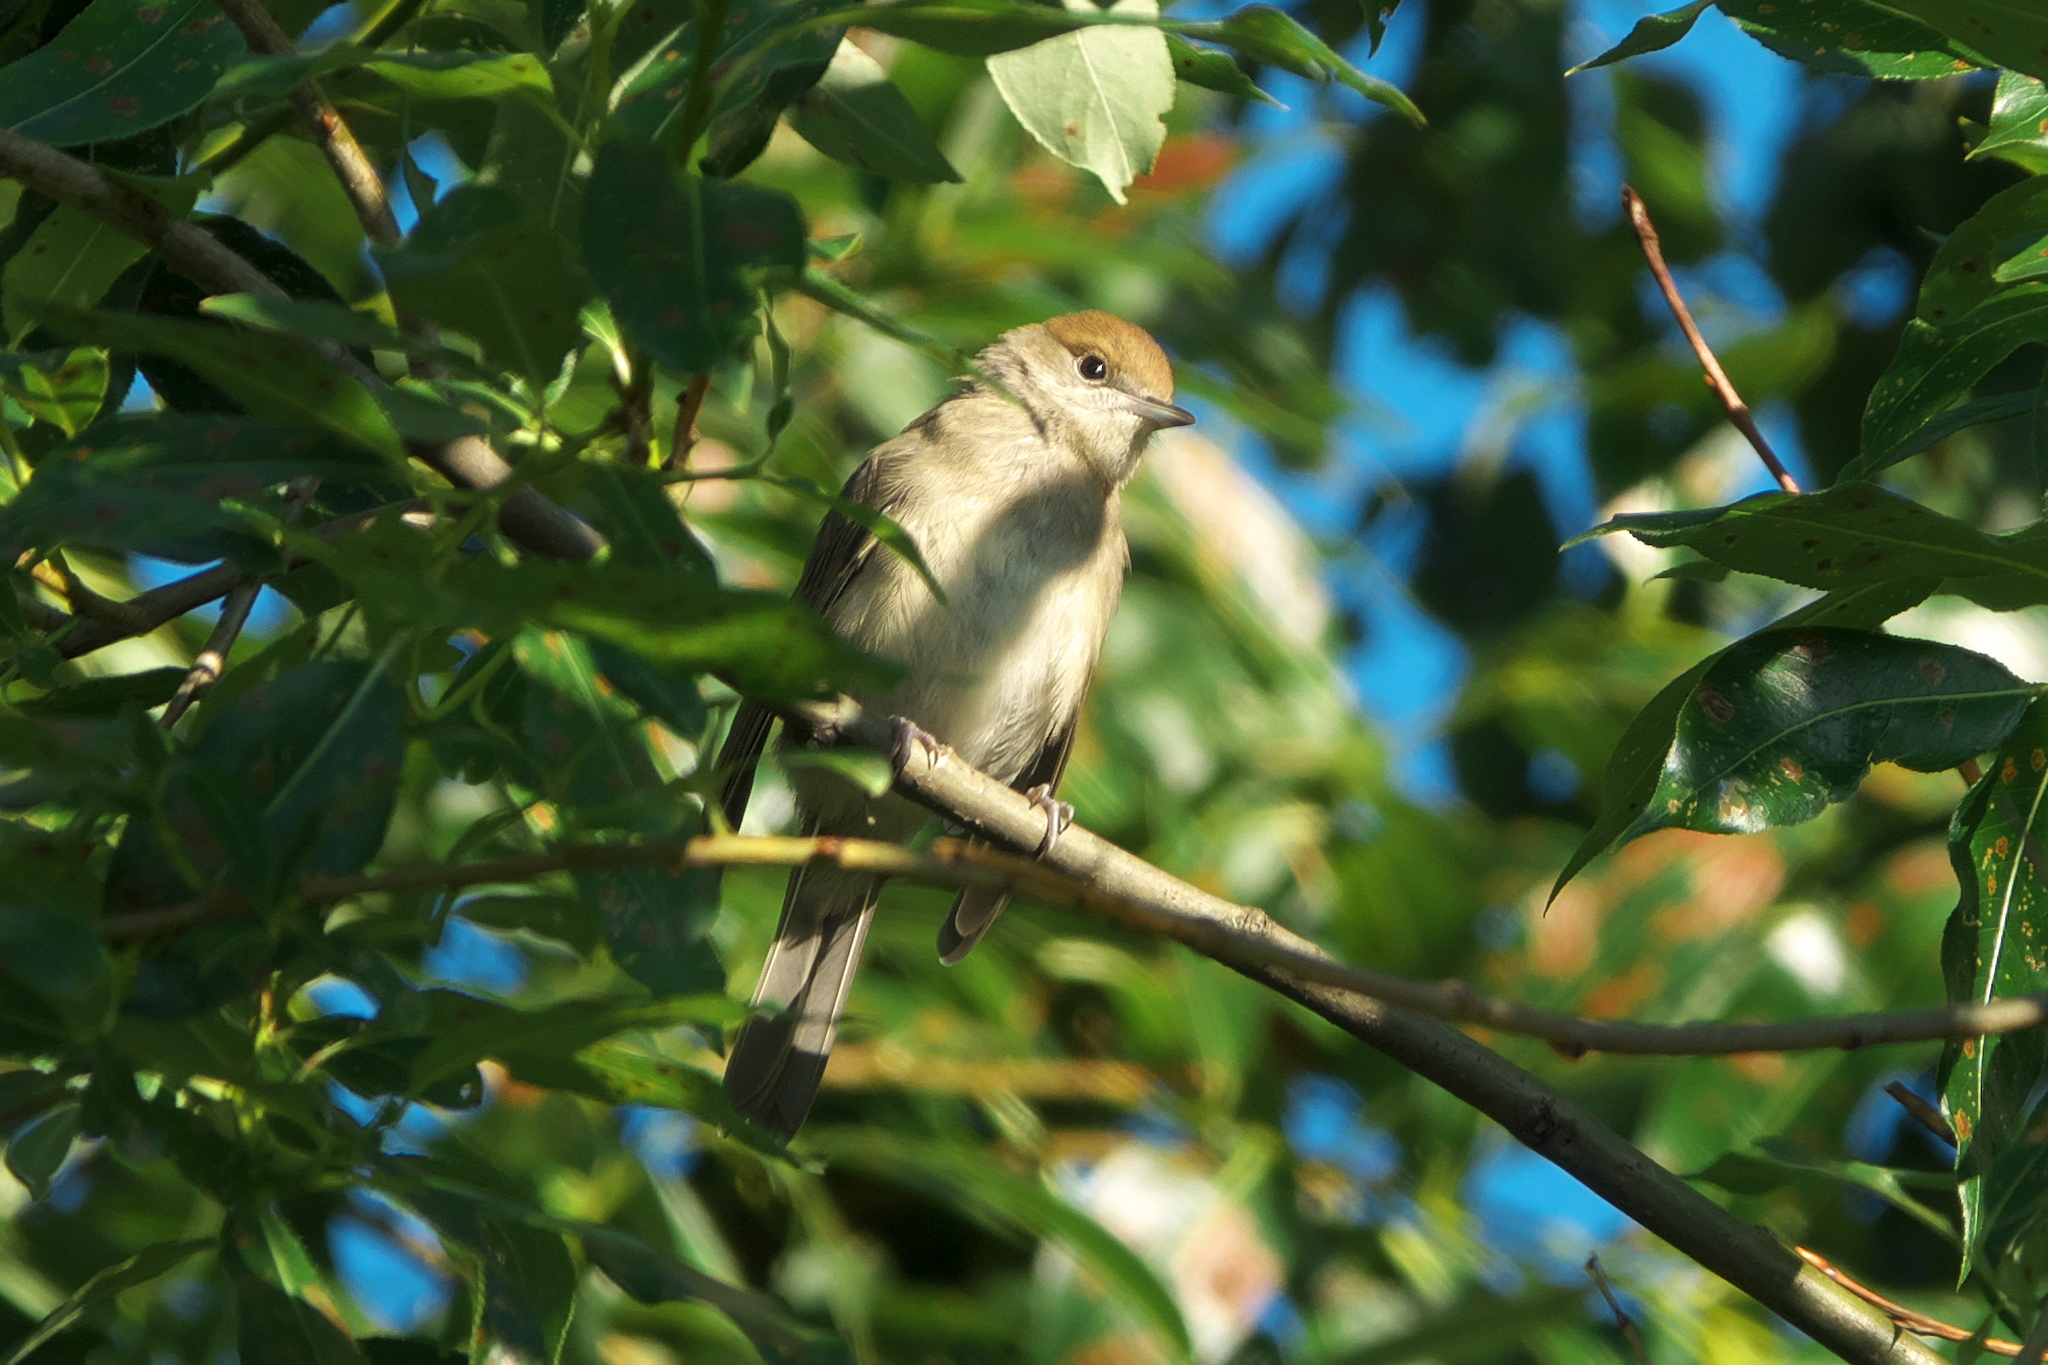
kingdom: Animalia
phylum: Chordata
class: Aves
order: Passeriformes
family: Sylviidae
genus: Sylvia
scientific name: Sylvia atricapilla
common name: Eurasian blackcap
